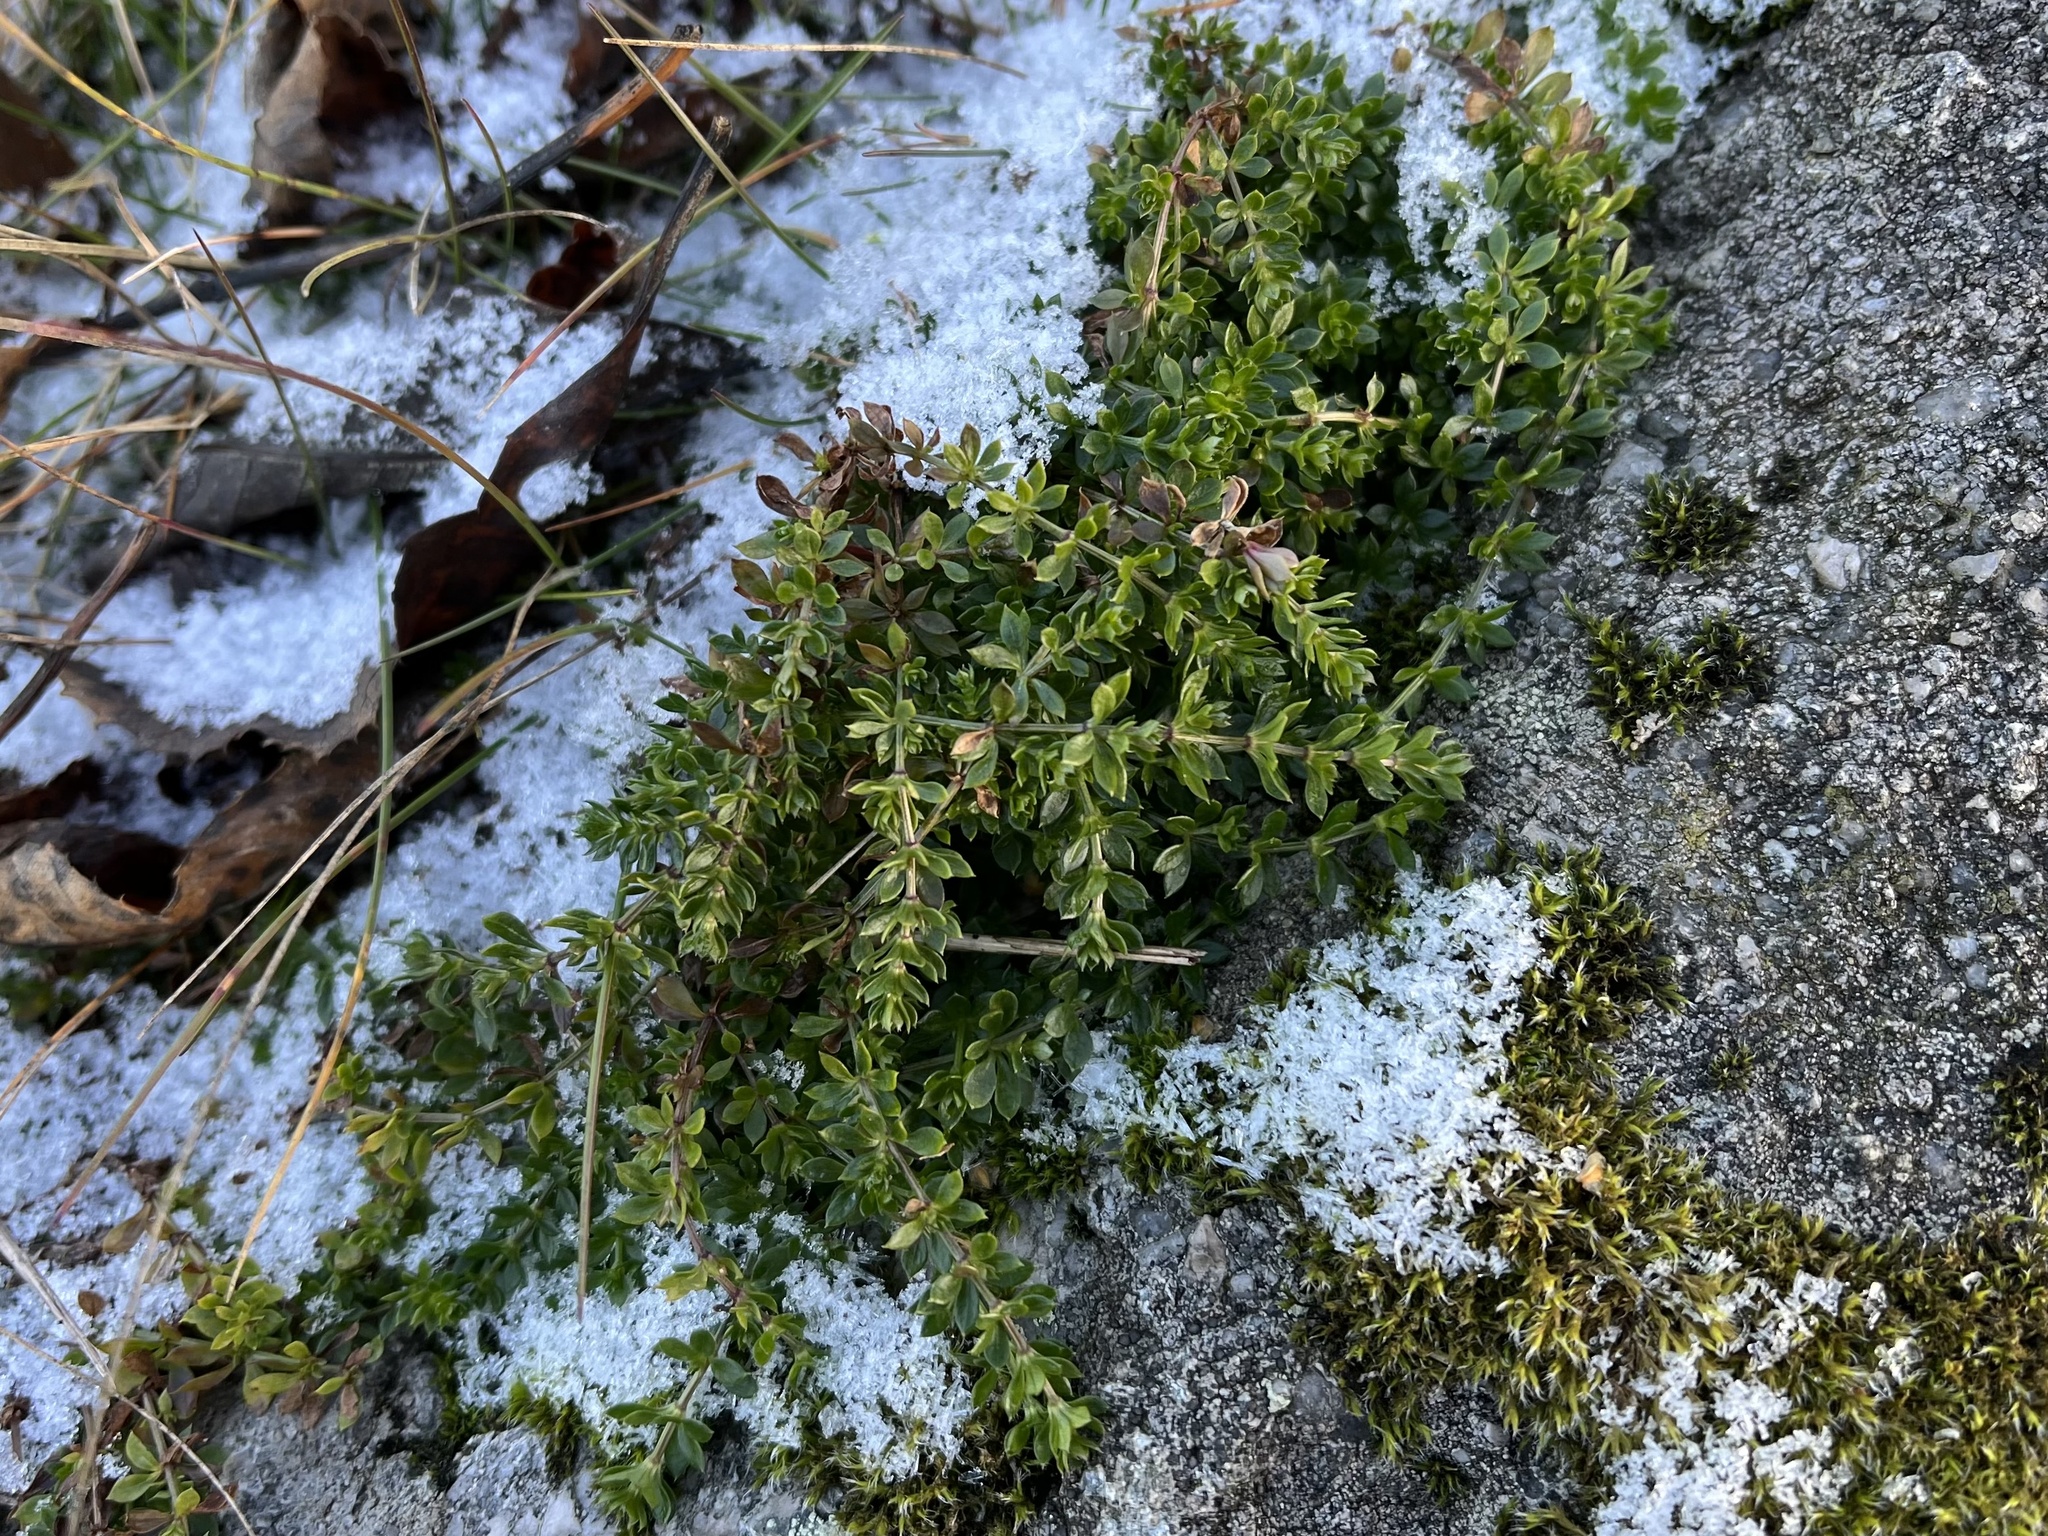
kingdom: Plantae
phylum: Tracheophyta
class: Magnoliopsida
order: Gentianales
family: Rubiaceae
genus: Galium
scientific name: Galium saxatile
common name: Heath bedstraw
